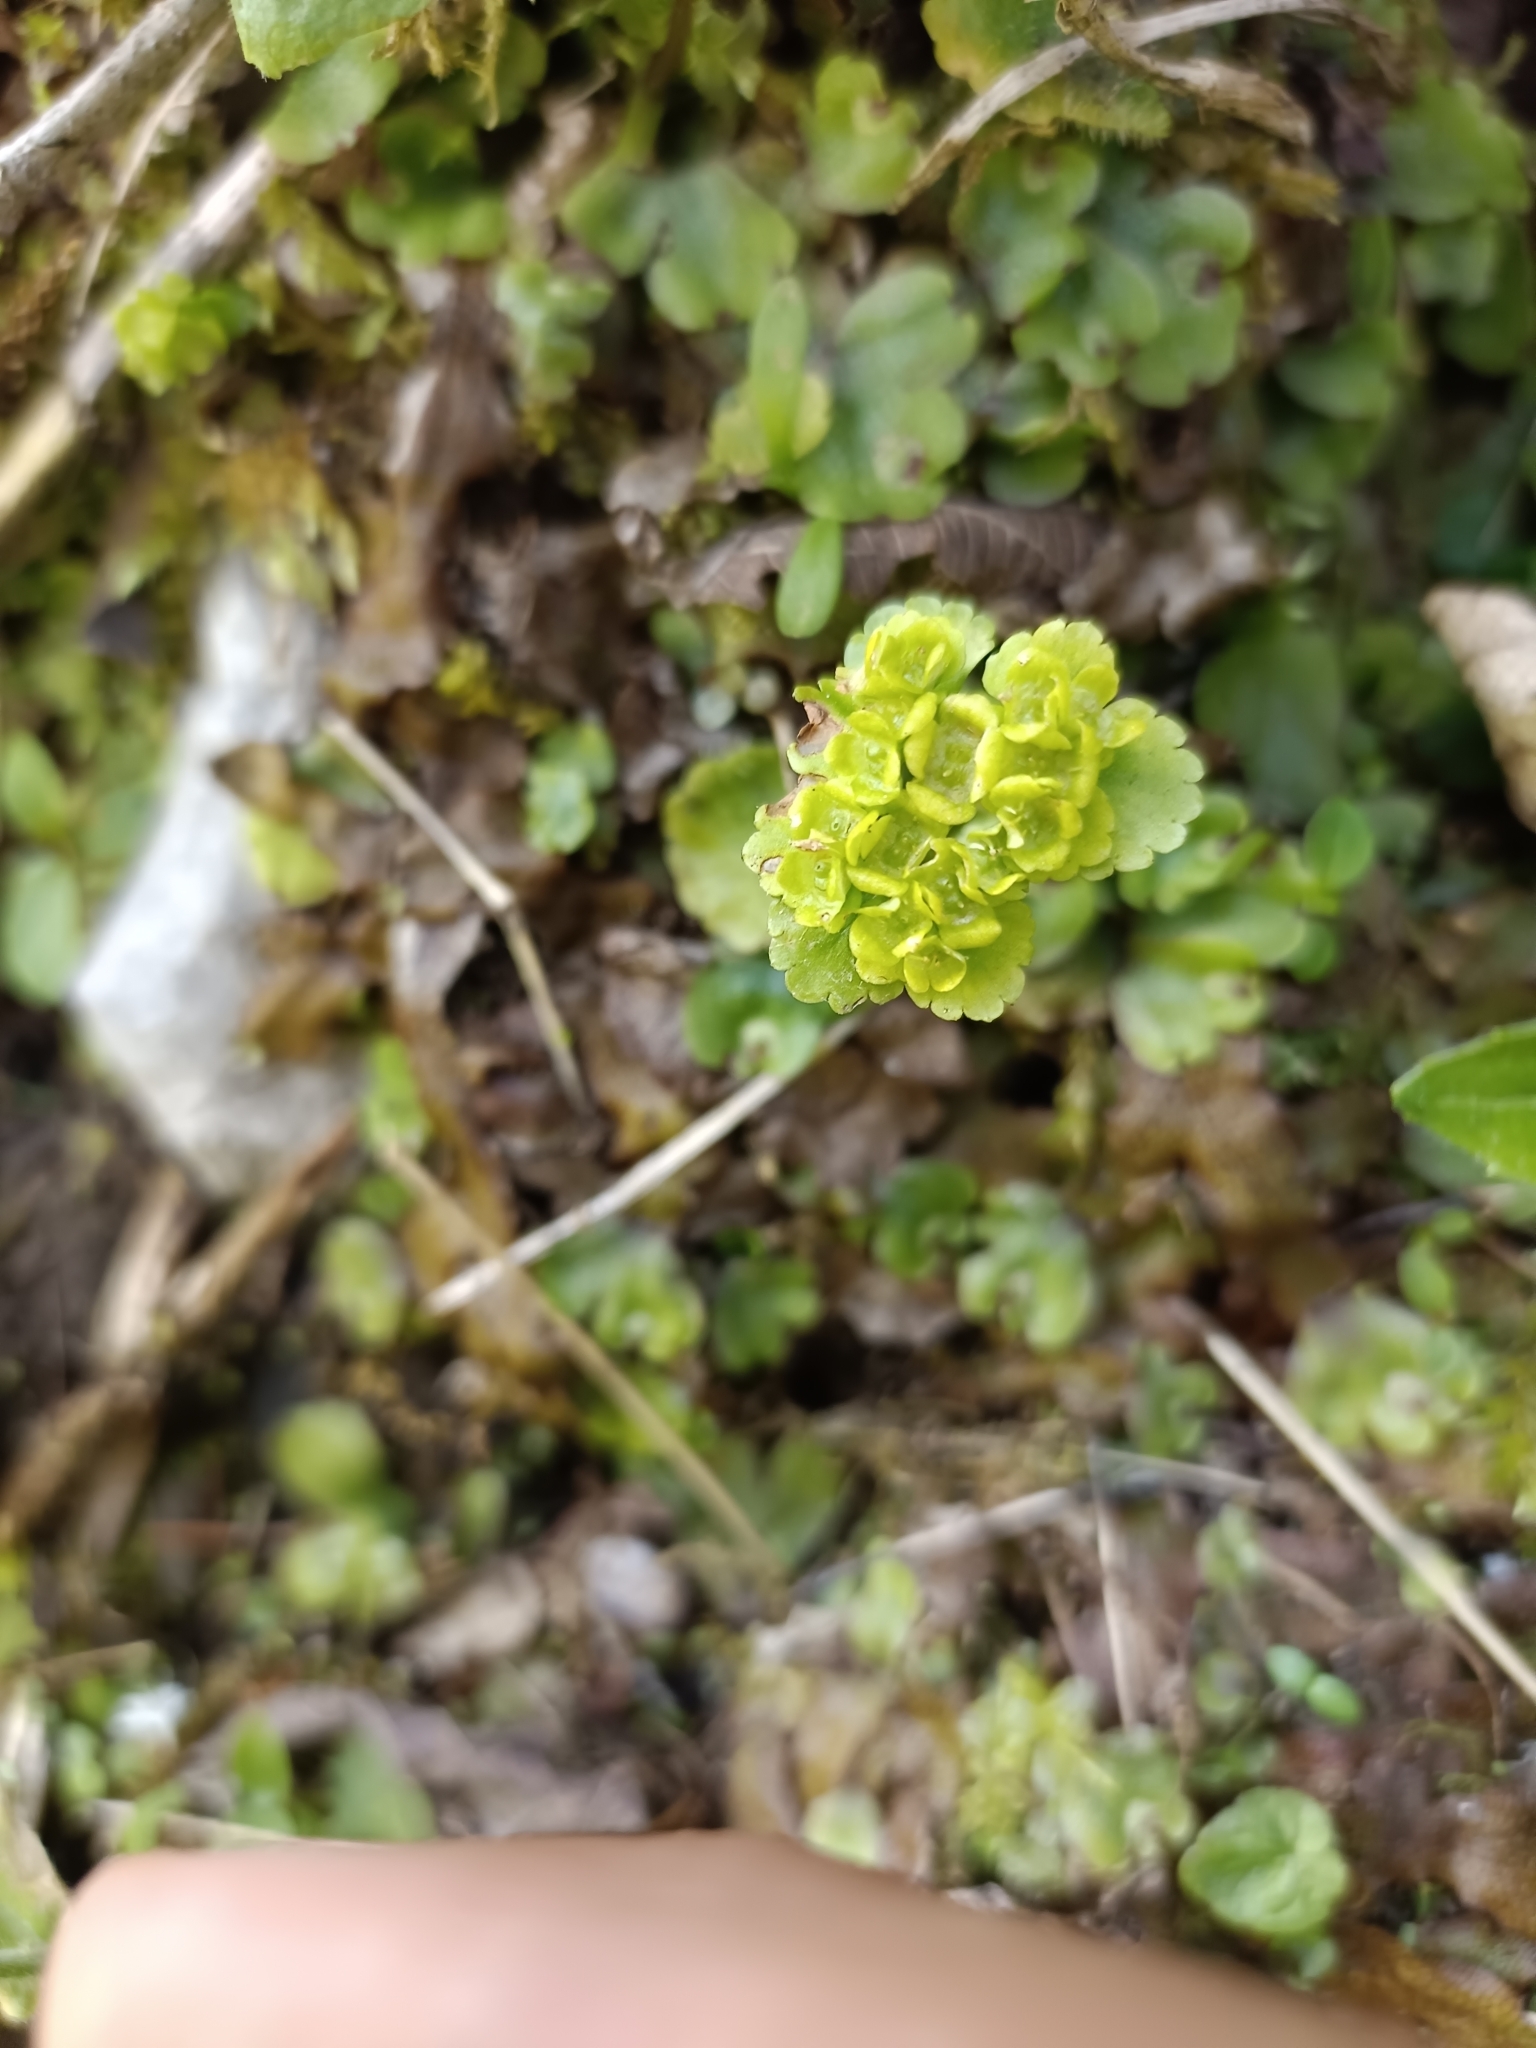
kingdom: Plantae
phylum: Tracheophyta
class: Magnoliopsida
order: Saxifragales
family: Saxifragaceae
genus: Chrysosplenium
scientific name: Chrysosplenium alternifolium
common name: Alternate-leaved golden-saxifrage
